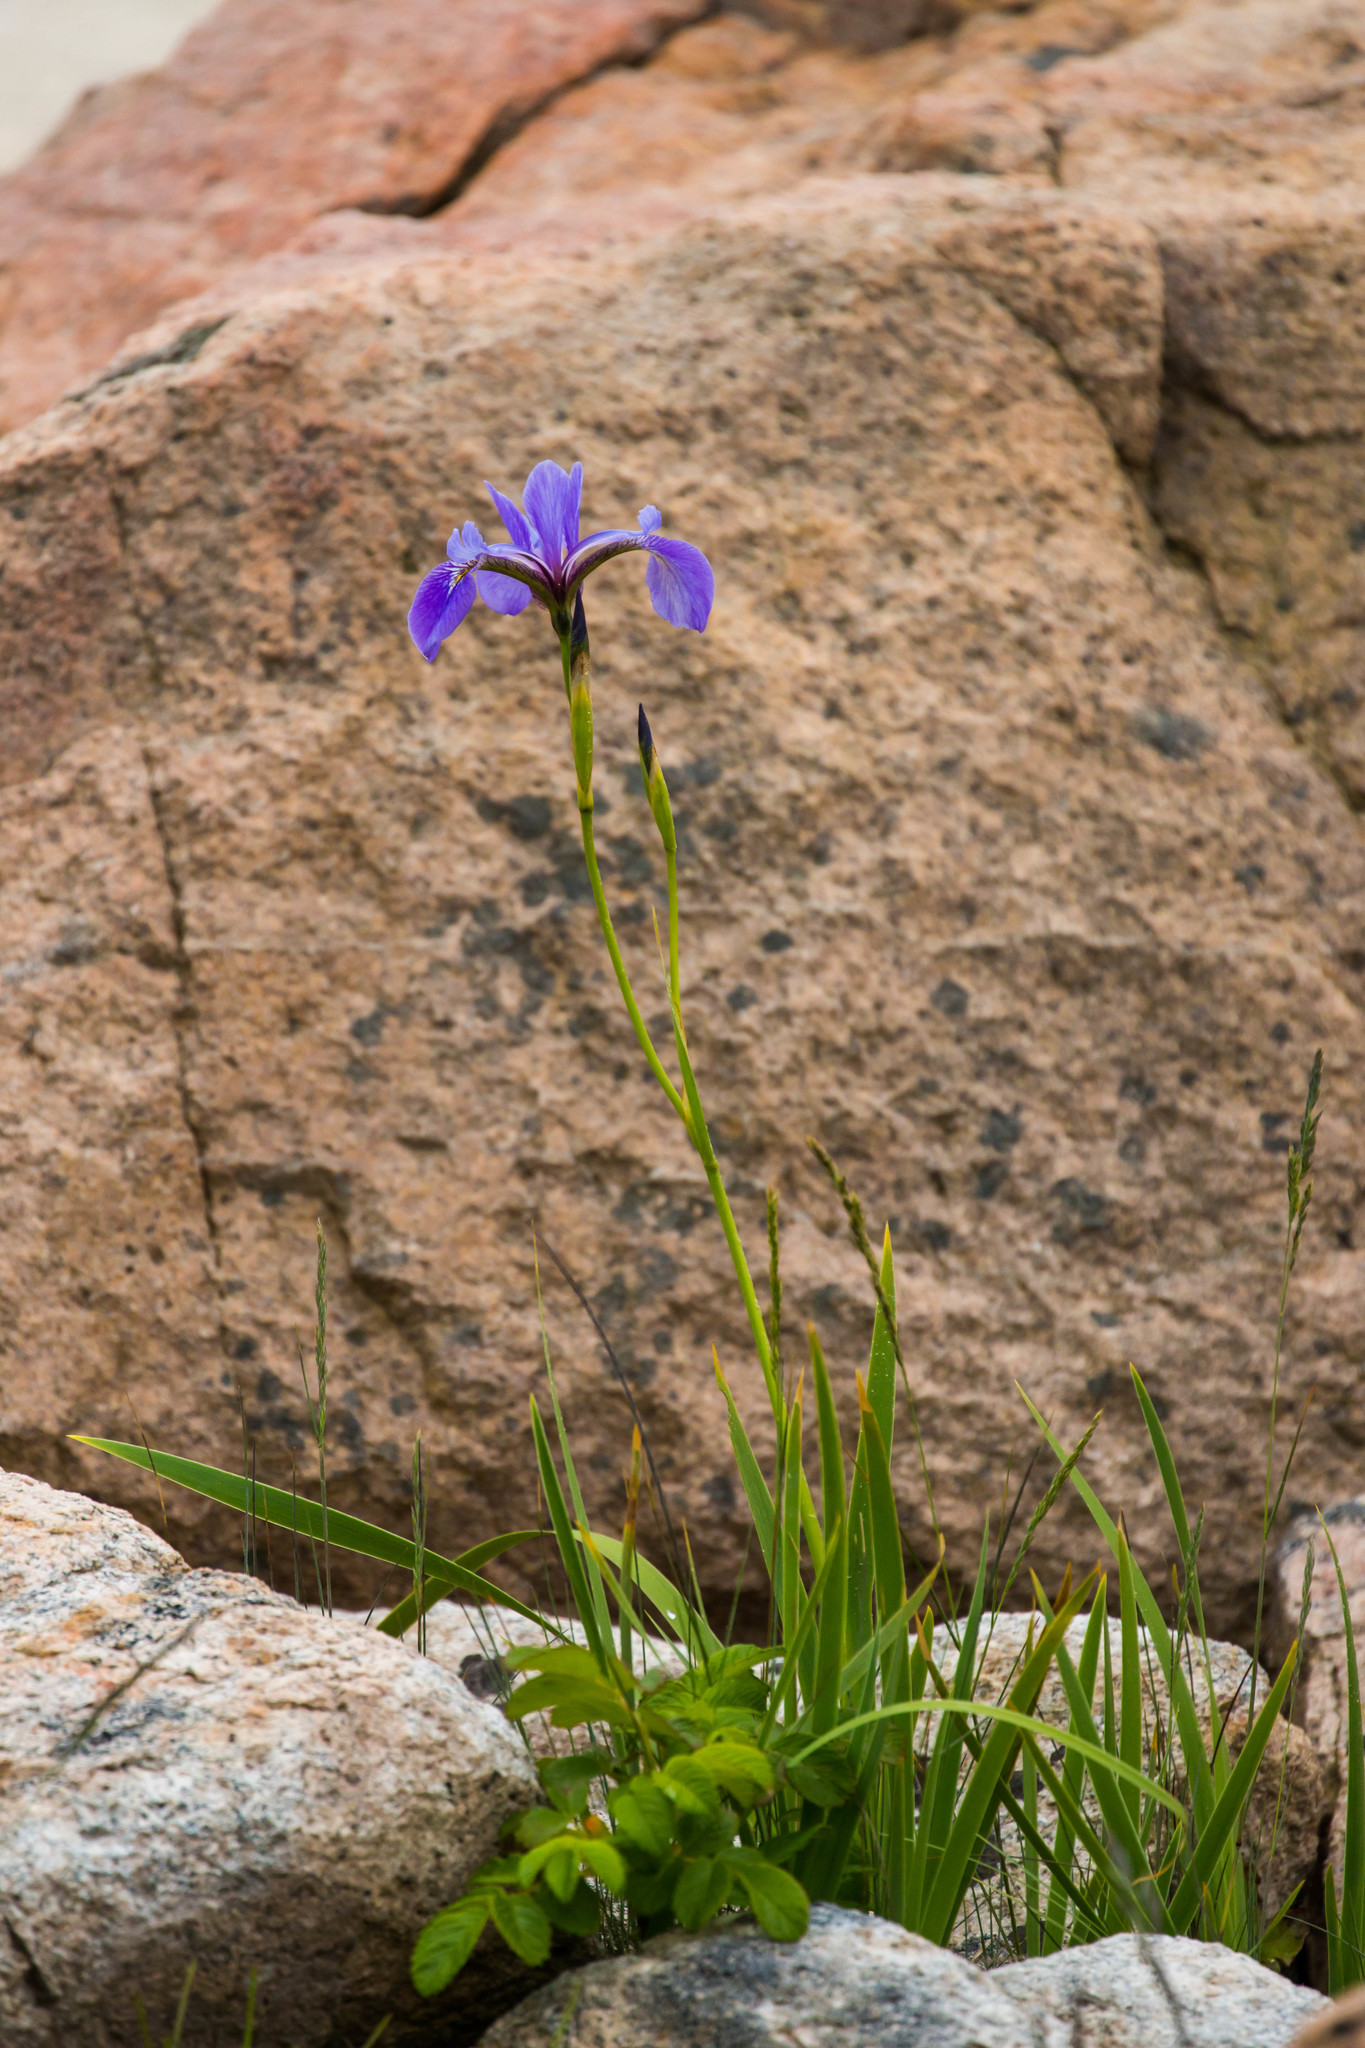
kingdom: Plantae
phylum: Tracheophyta
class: Liliopsida
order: Asparagales
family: Iridaceae
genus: Iris
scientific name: Iris versicolor
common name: Purple iris
